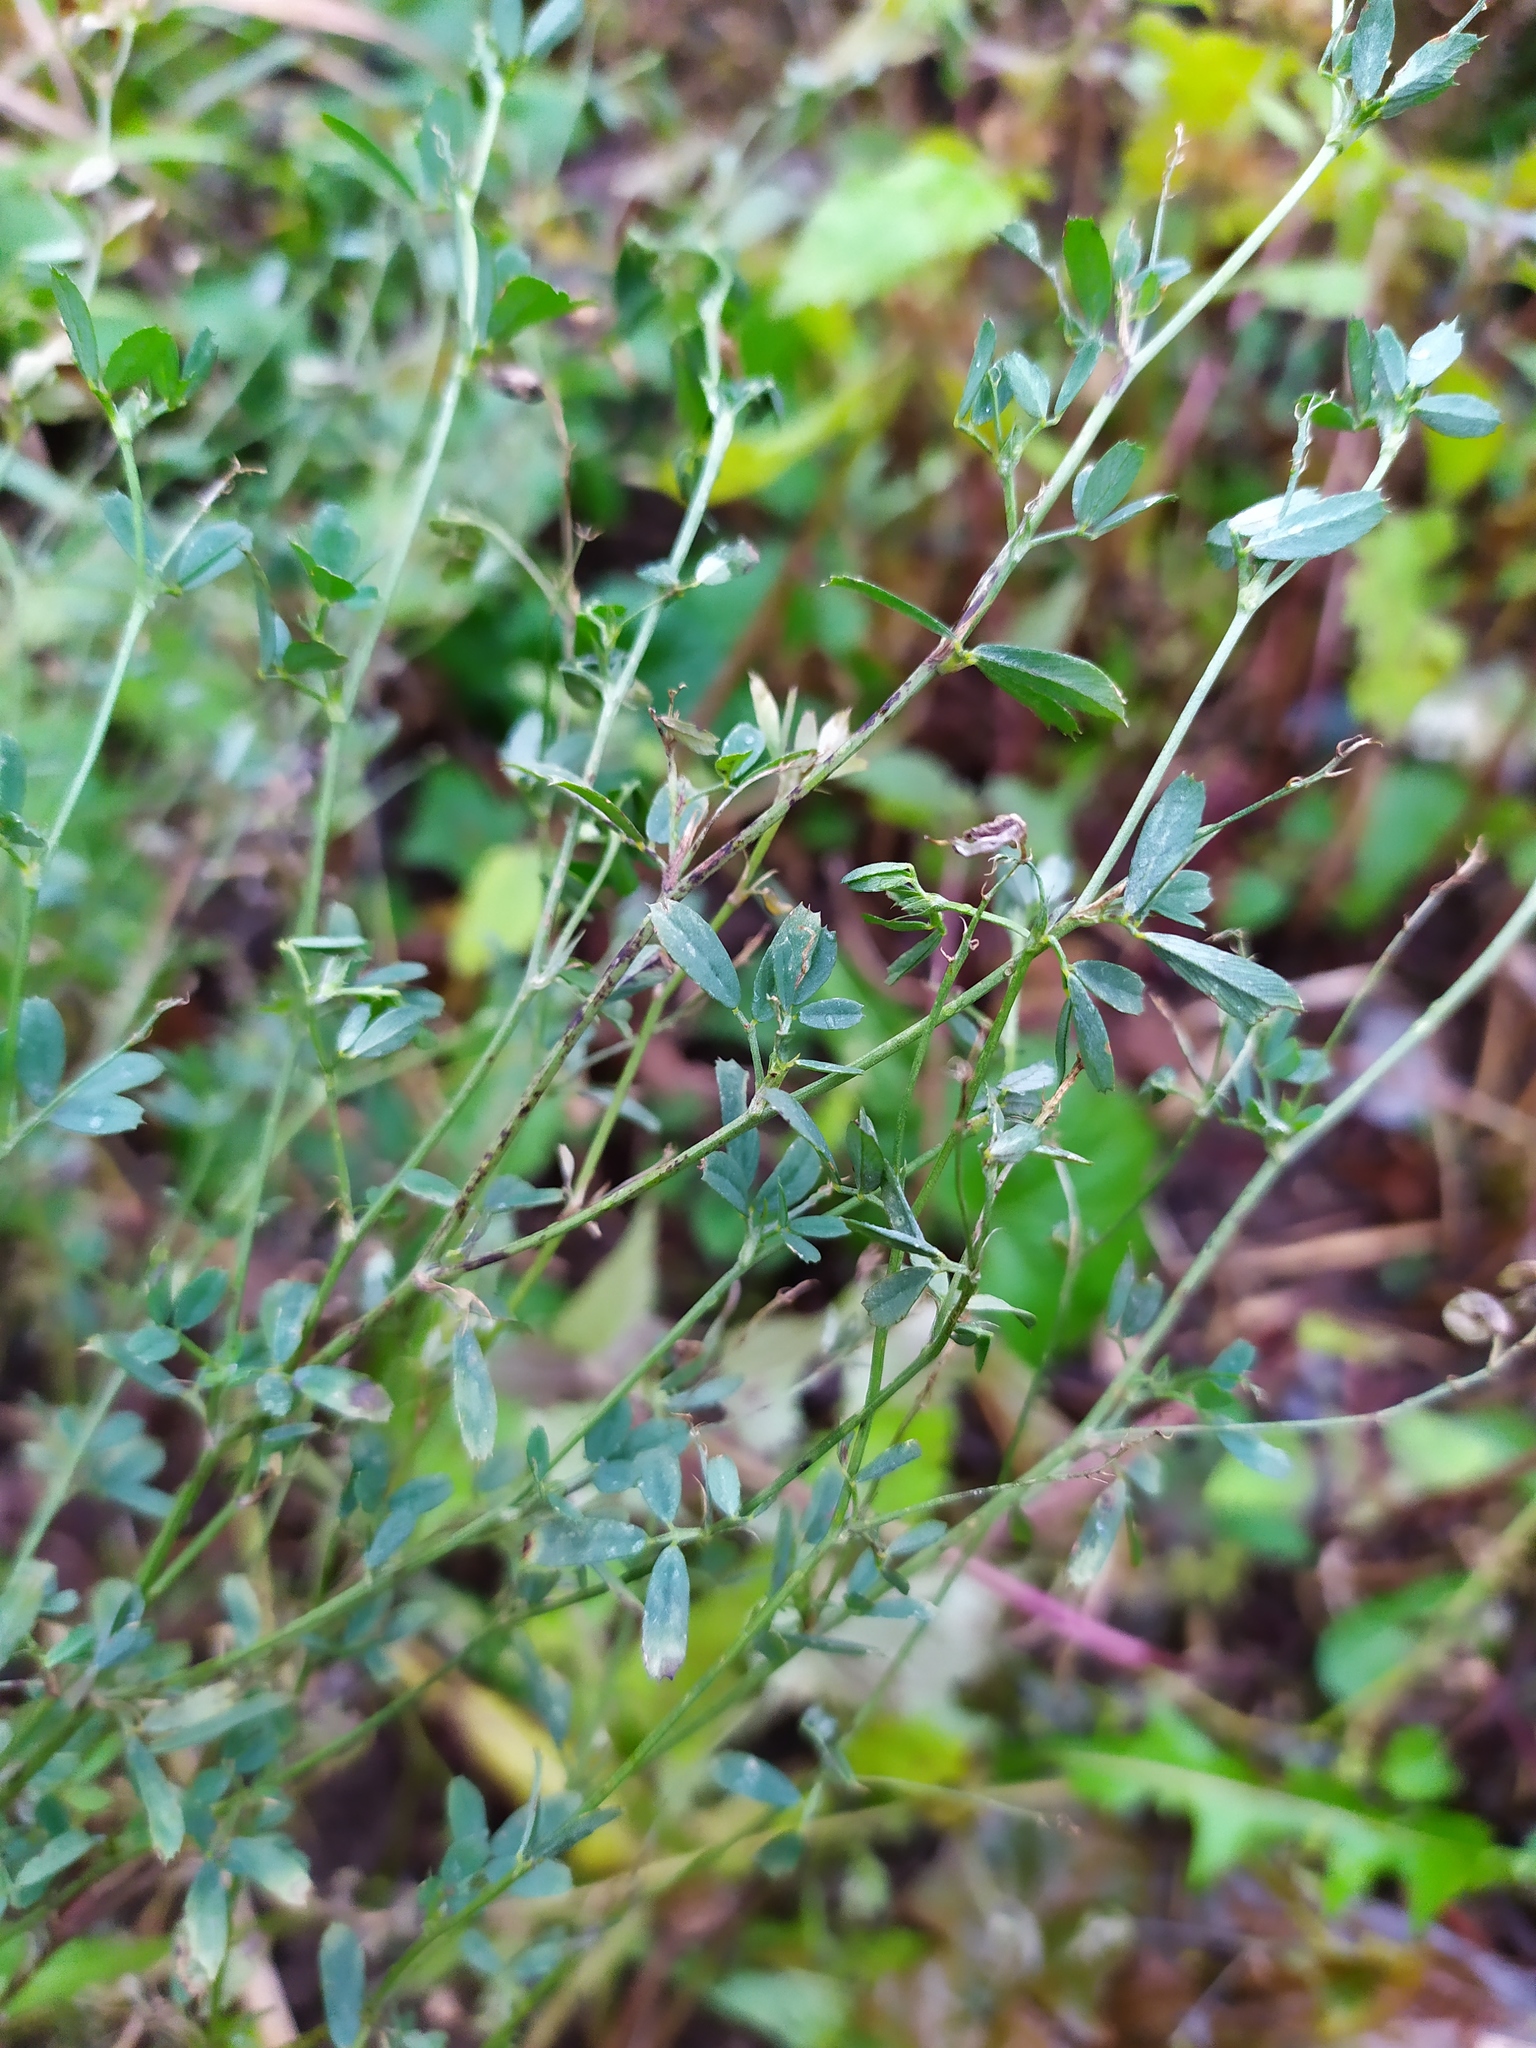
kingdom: Plantae
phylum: Tracheophyta
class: Magnoliopsida
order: Fabales
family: Fabaceae
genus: Medicago
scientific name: Medicago
